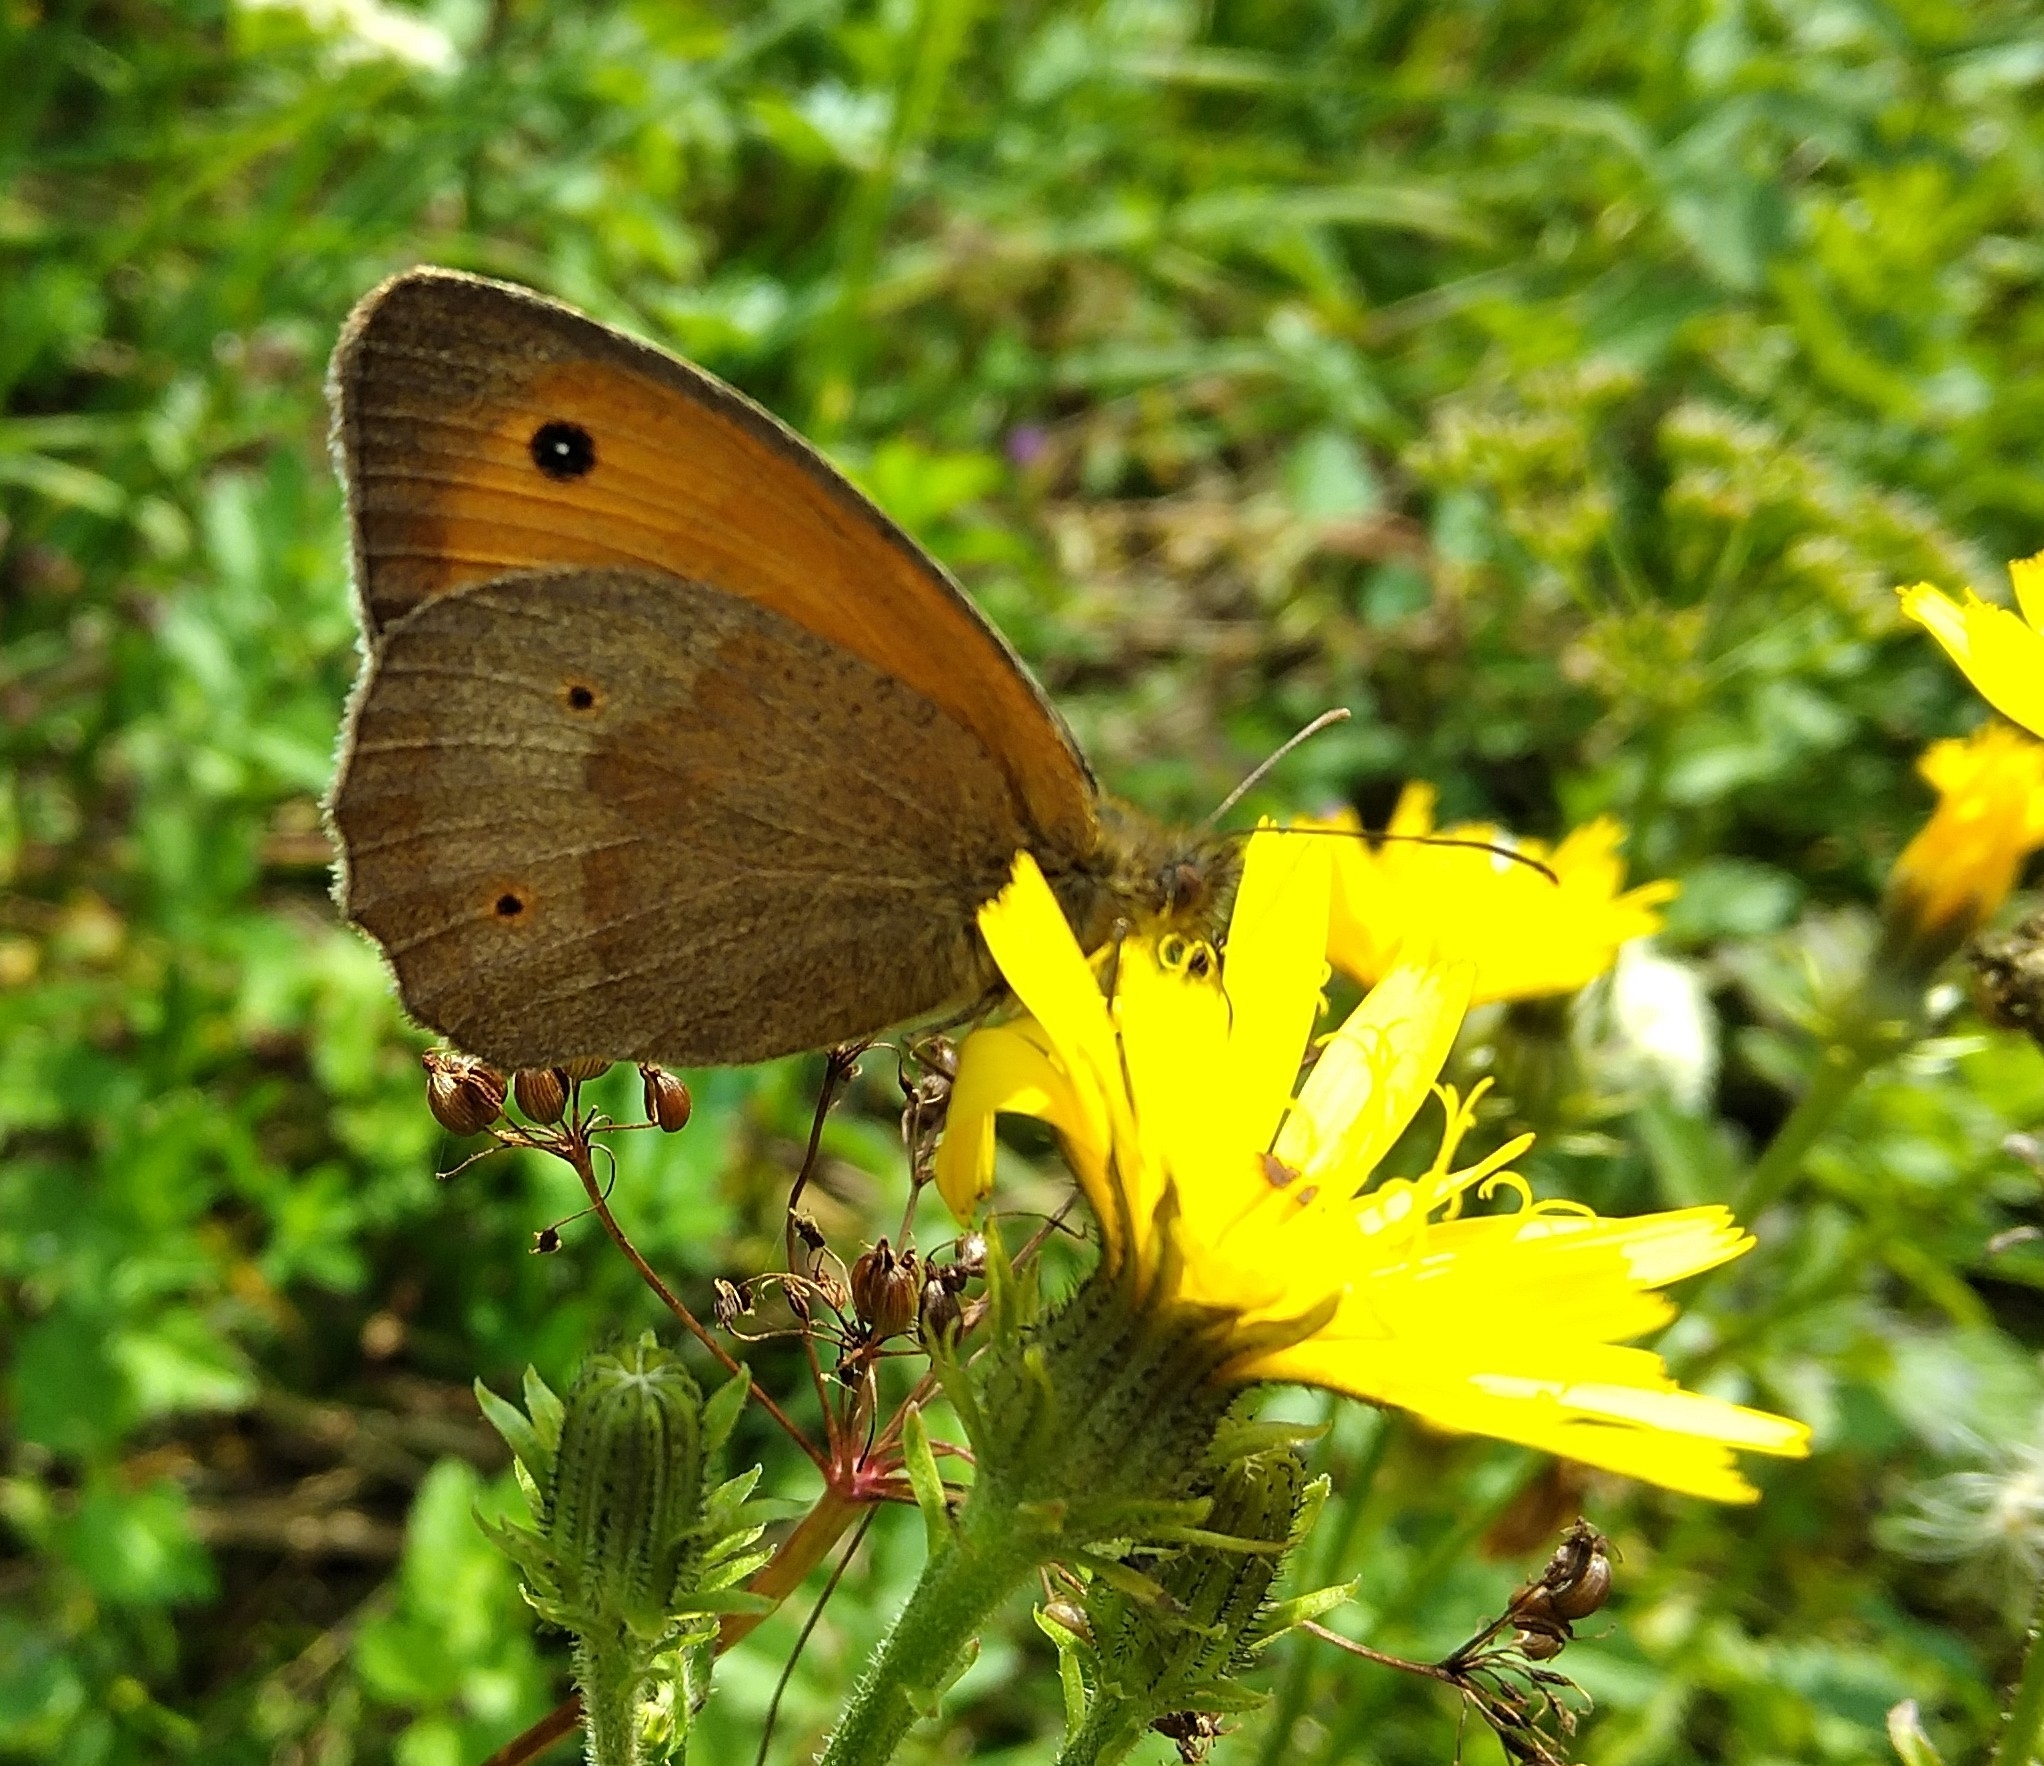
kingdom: Animalia
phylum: Arthropoda
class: Insecta
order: Lepidoptera
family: Nymphalidae
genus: Maniola
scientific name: Maniola jurtina
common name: Meadow brown
